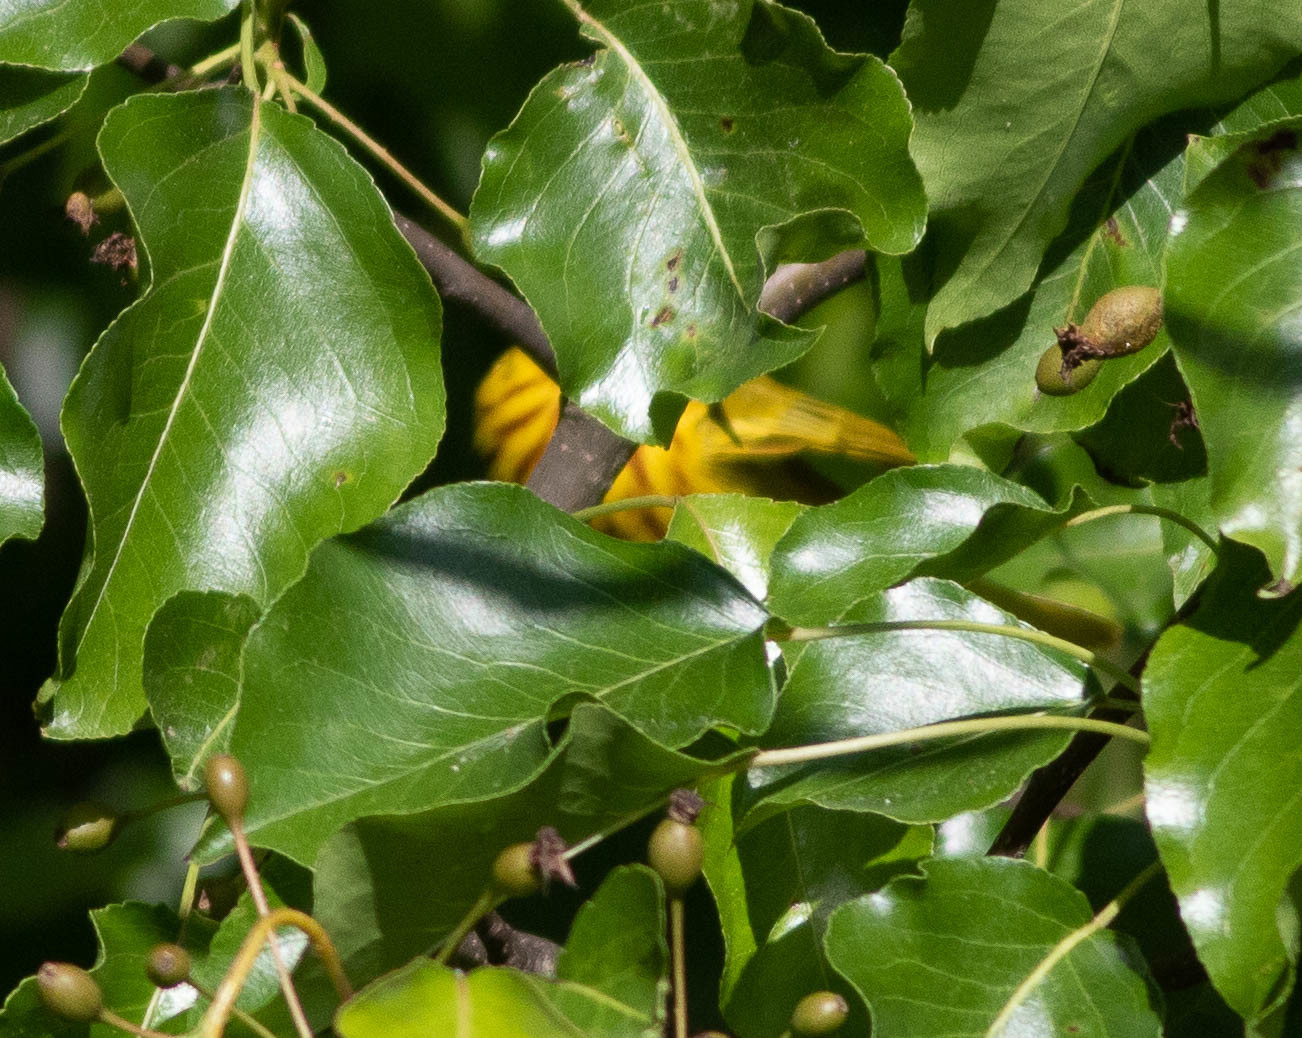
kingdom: Animalia
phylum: Chordata
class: Aves
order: Passeriformes
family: Parulidae
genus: Setophaga
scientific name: Setophaga petechia
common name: Yellow warbler
